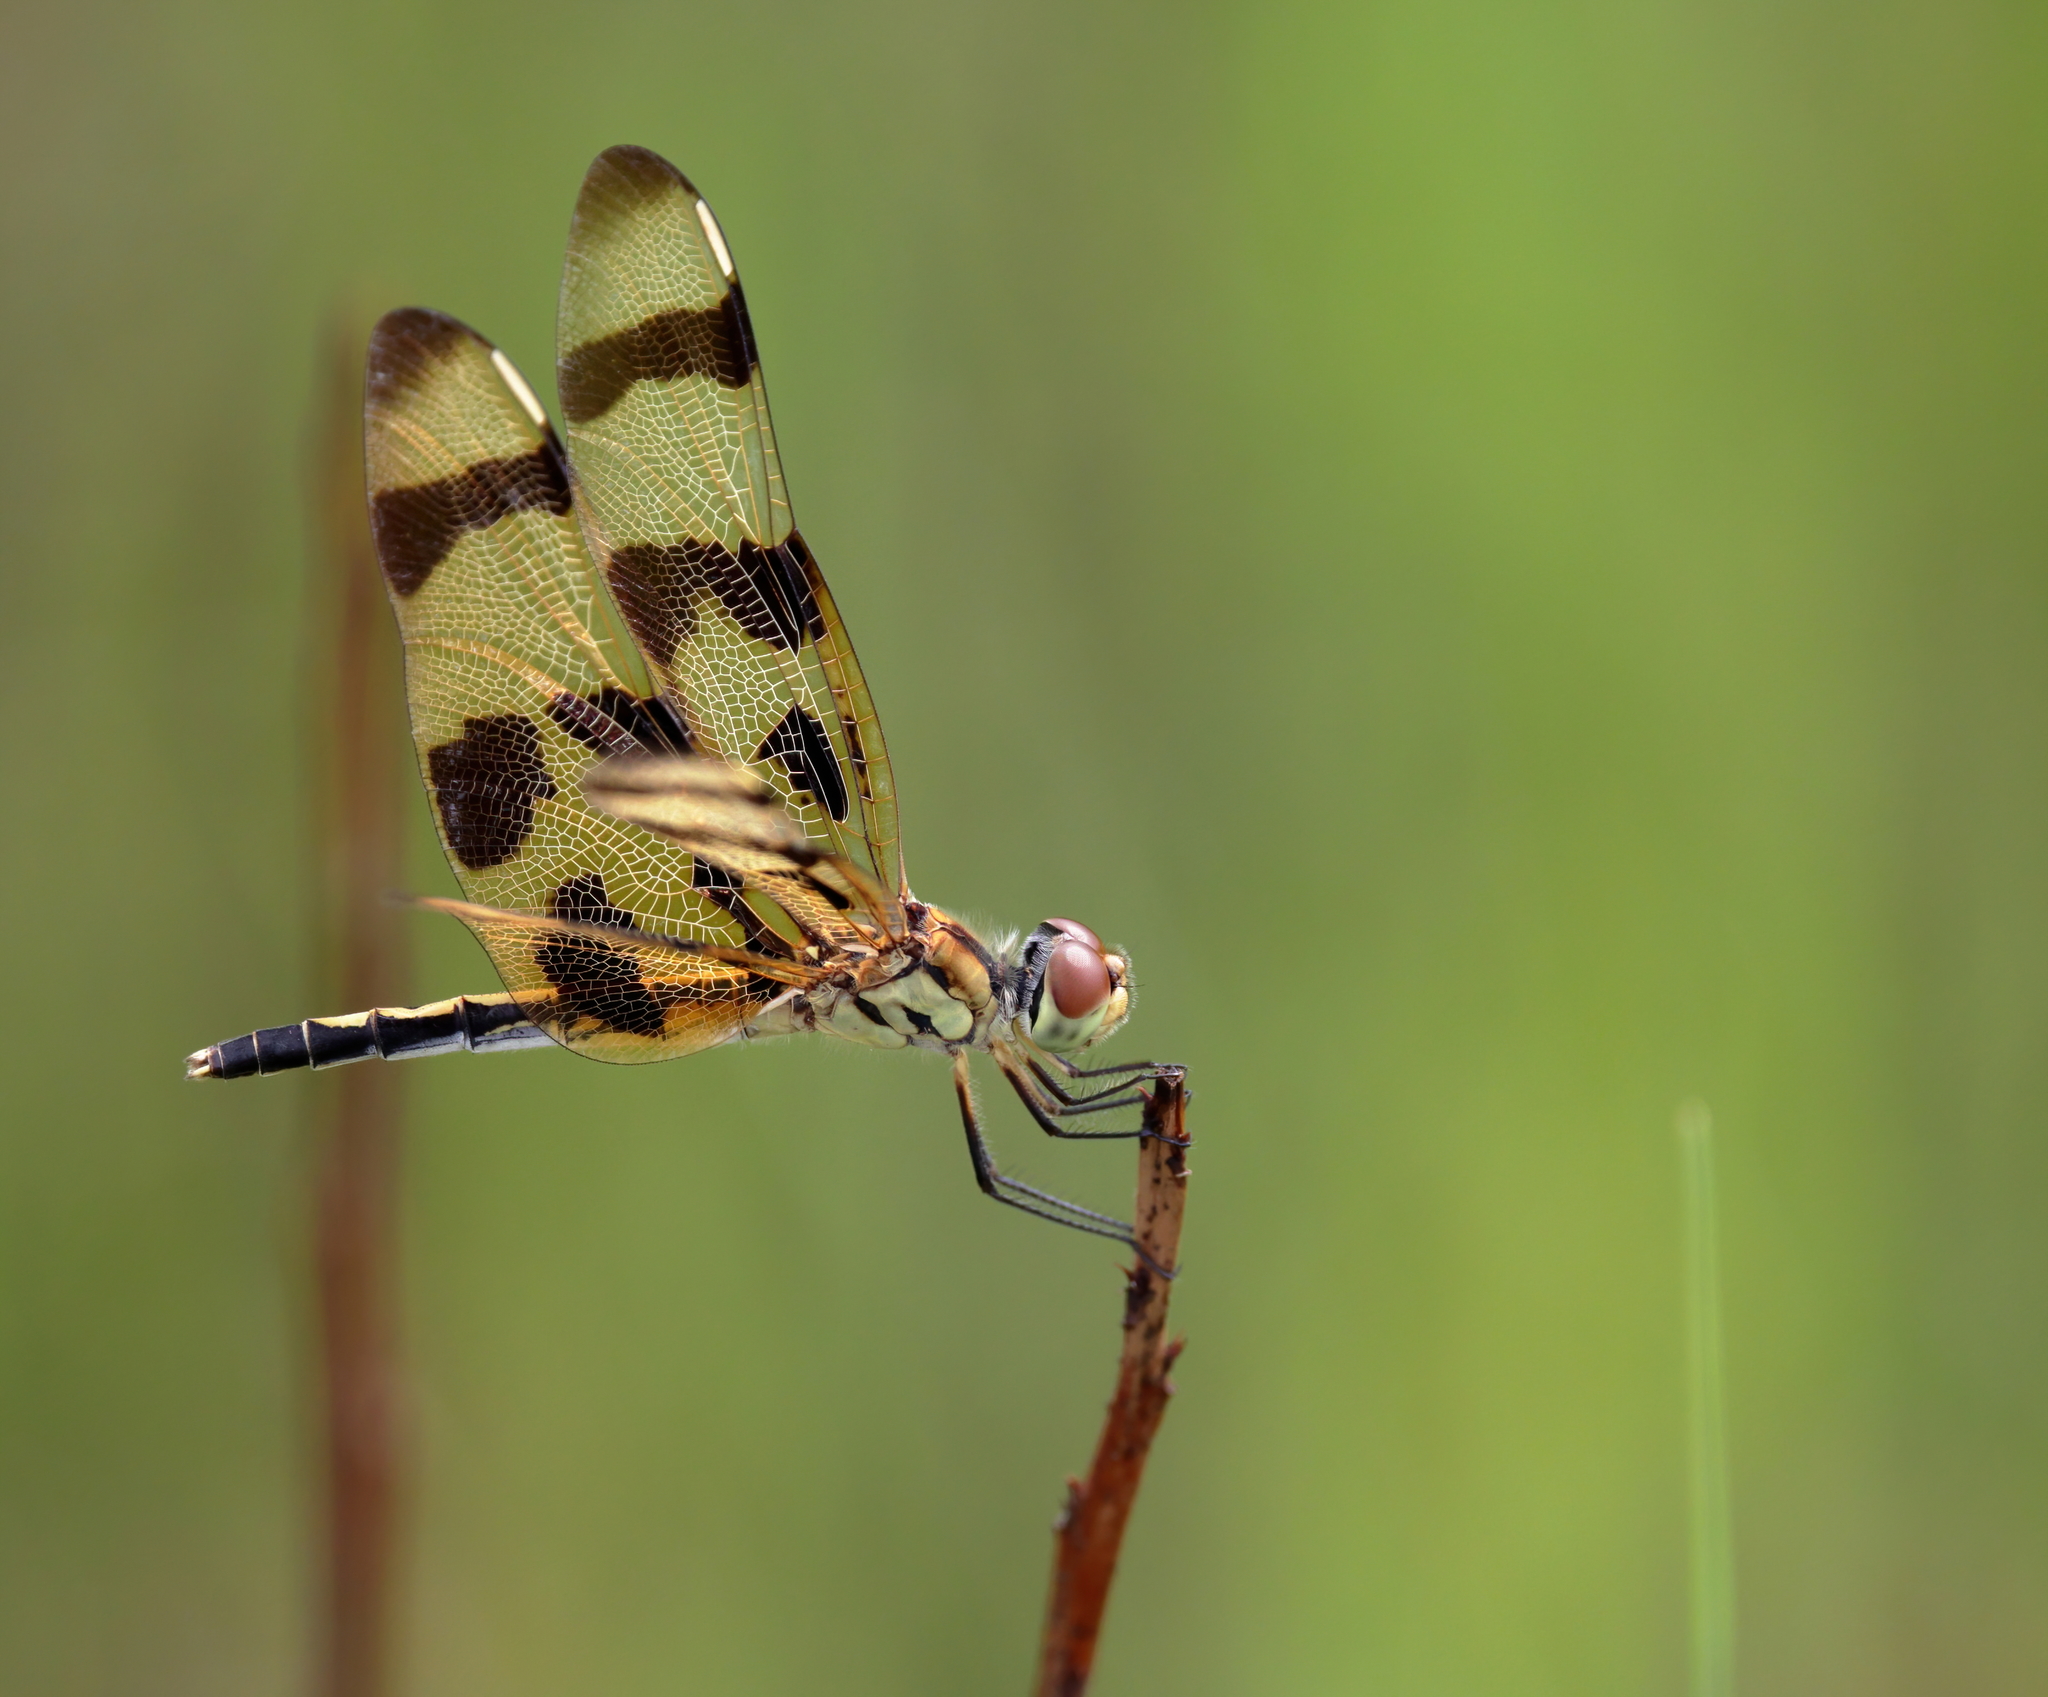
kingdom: Animalia
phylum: Arthropoda
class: Insecta
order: Odonata
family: Libellulidae
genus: Celithemis
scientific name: Celithemis eponina
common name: Halloween pennant
